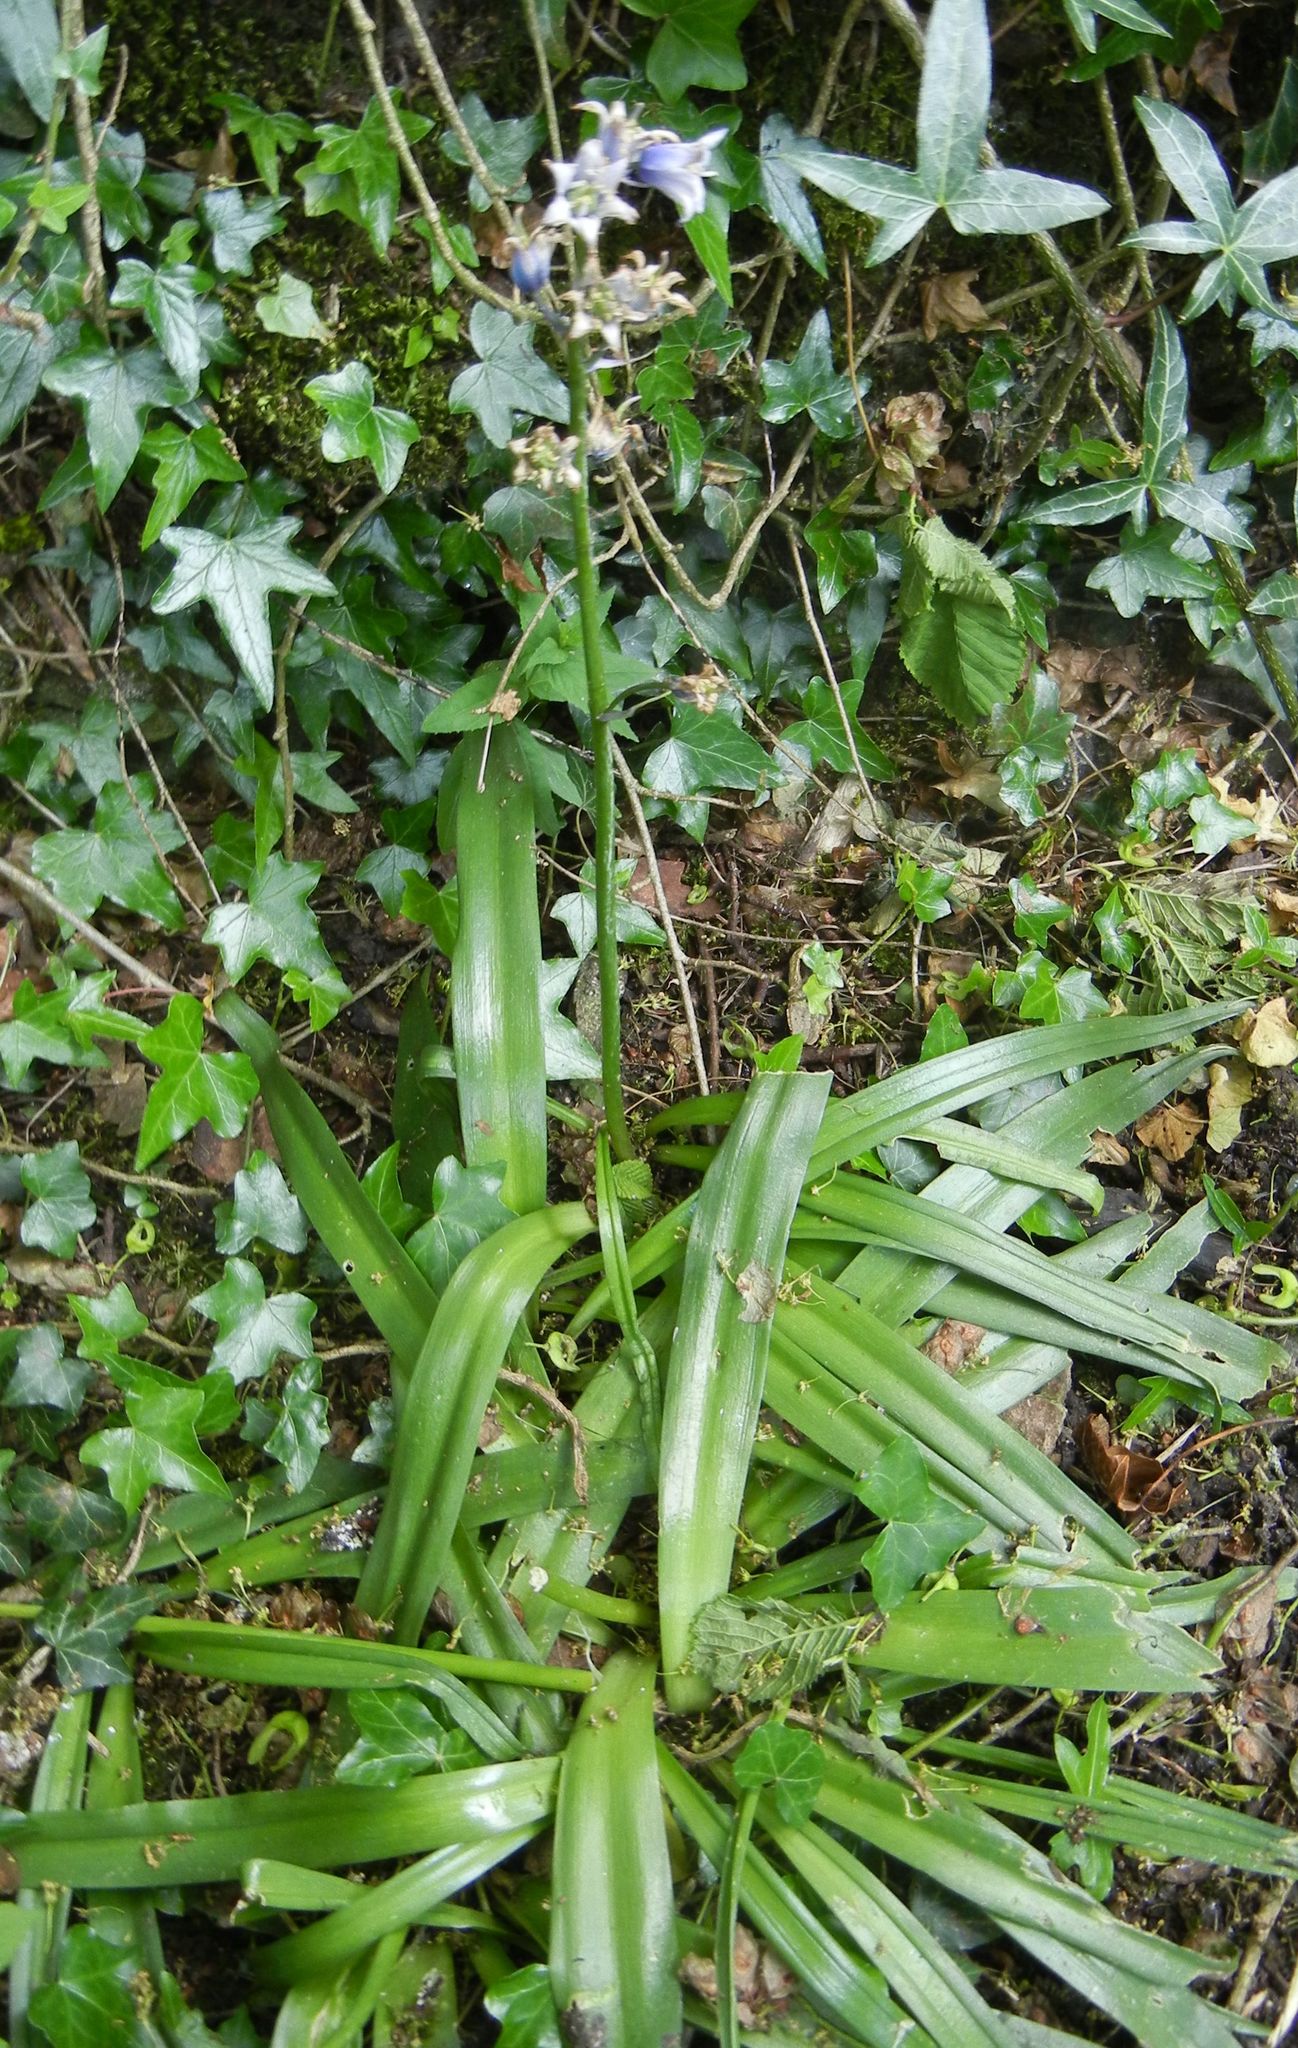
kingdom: Plantae
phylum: Tracheophyta
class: Liliopsida
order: Asparagales
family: Asparagaceae
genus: Hyacinthoides
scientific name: Hyacinthoides massartiana
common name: Hyacinthoides
